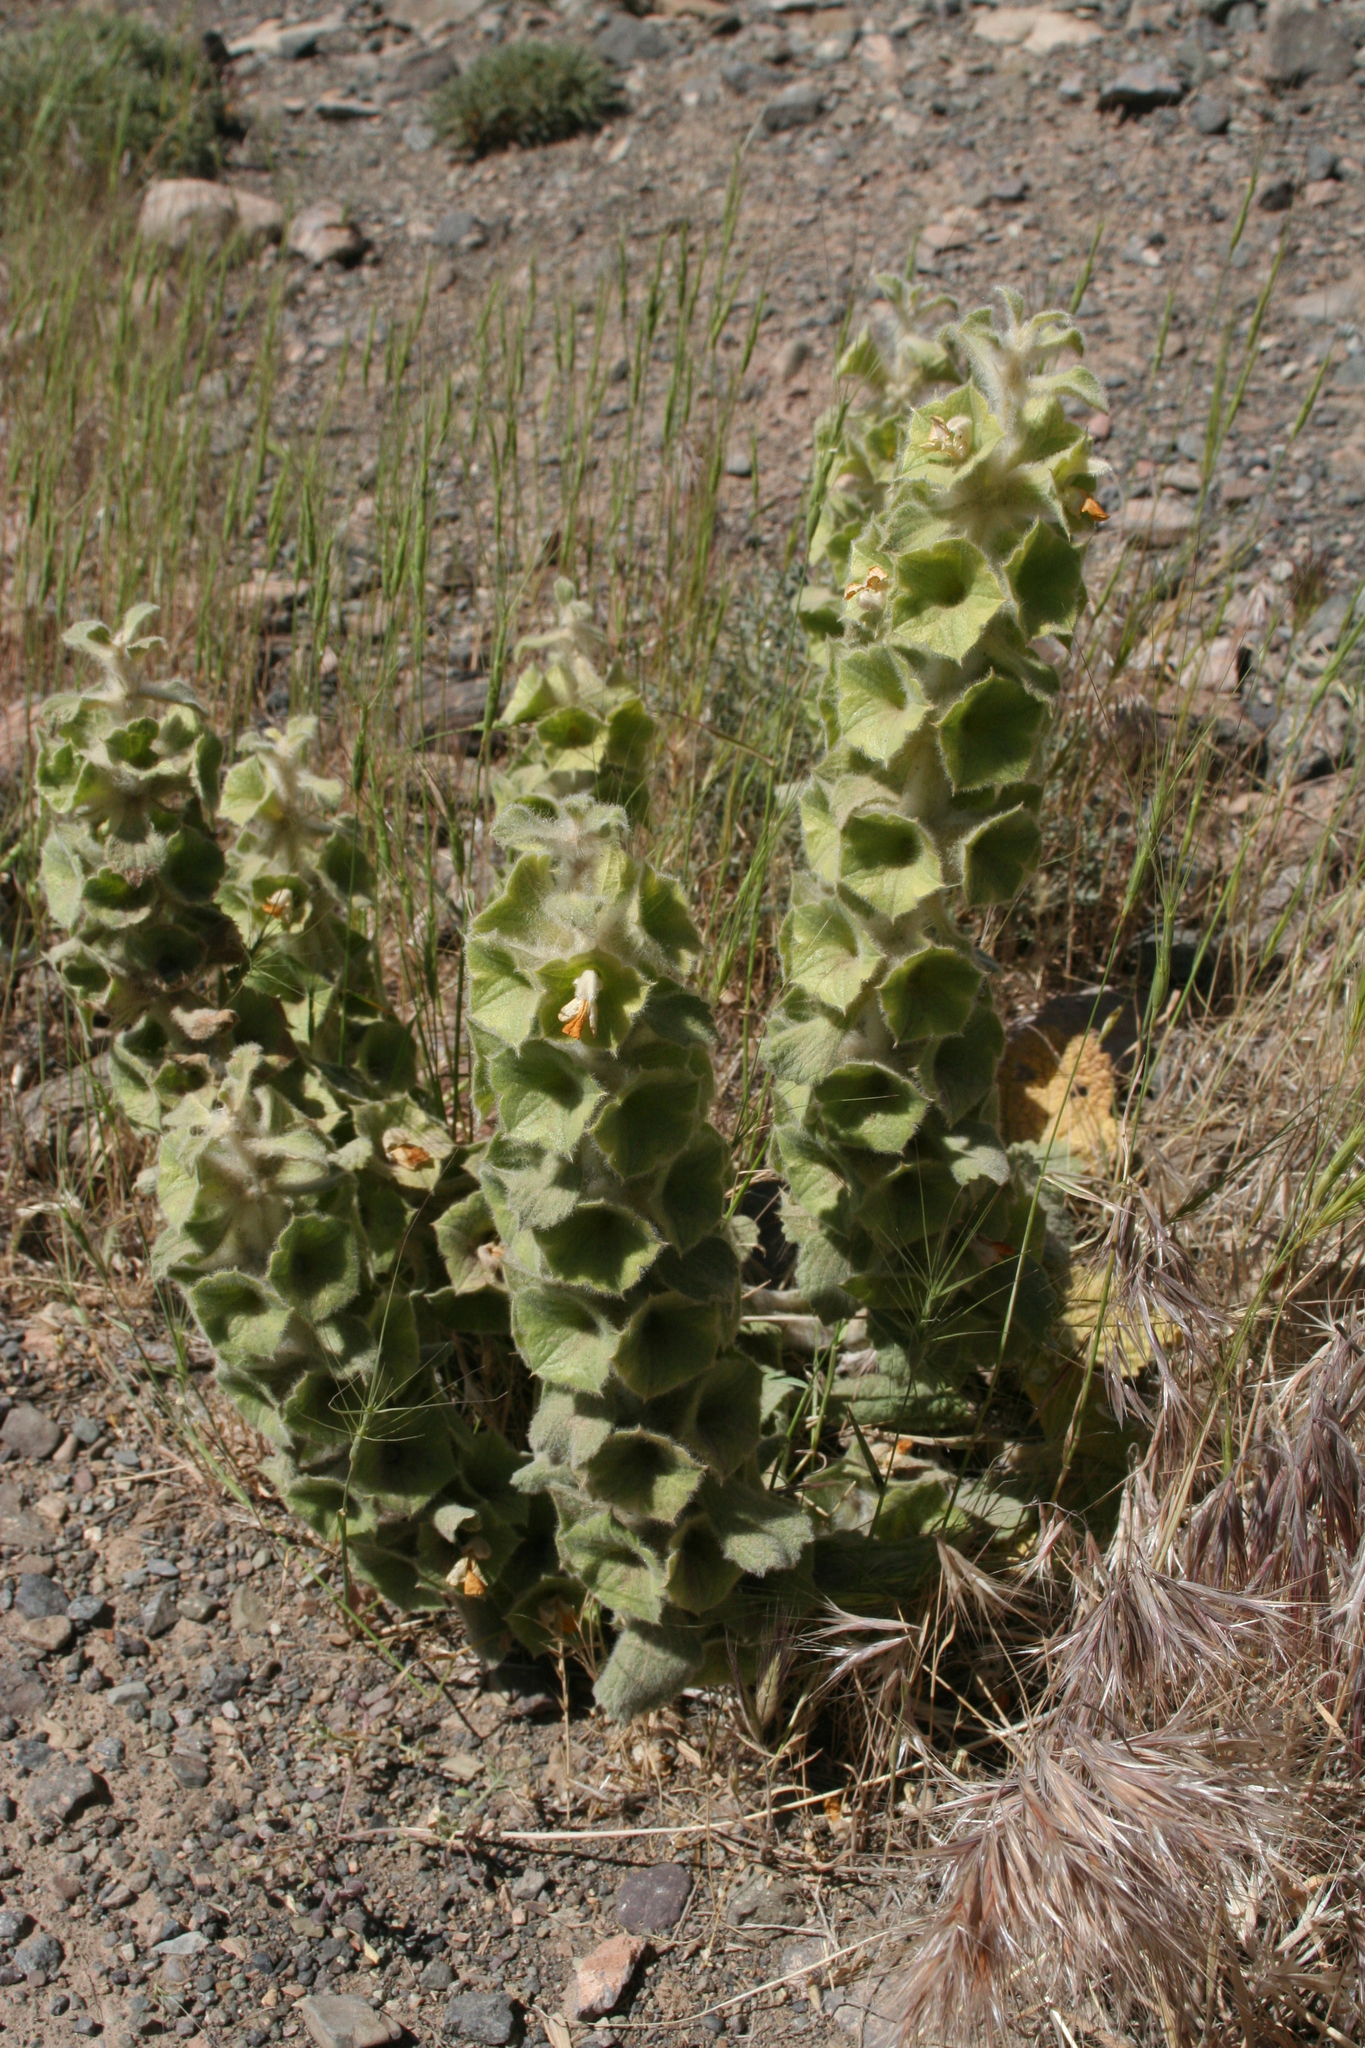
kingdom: Plantae
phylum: Tracheophyta
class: Magnoliopsida
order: Lamiales
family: Lamiaceae
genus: Phlomoides
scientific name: Phlomoides molucelloides
